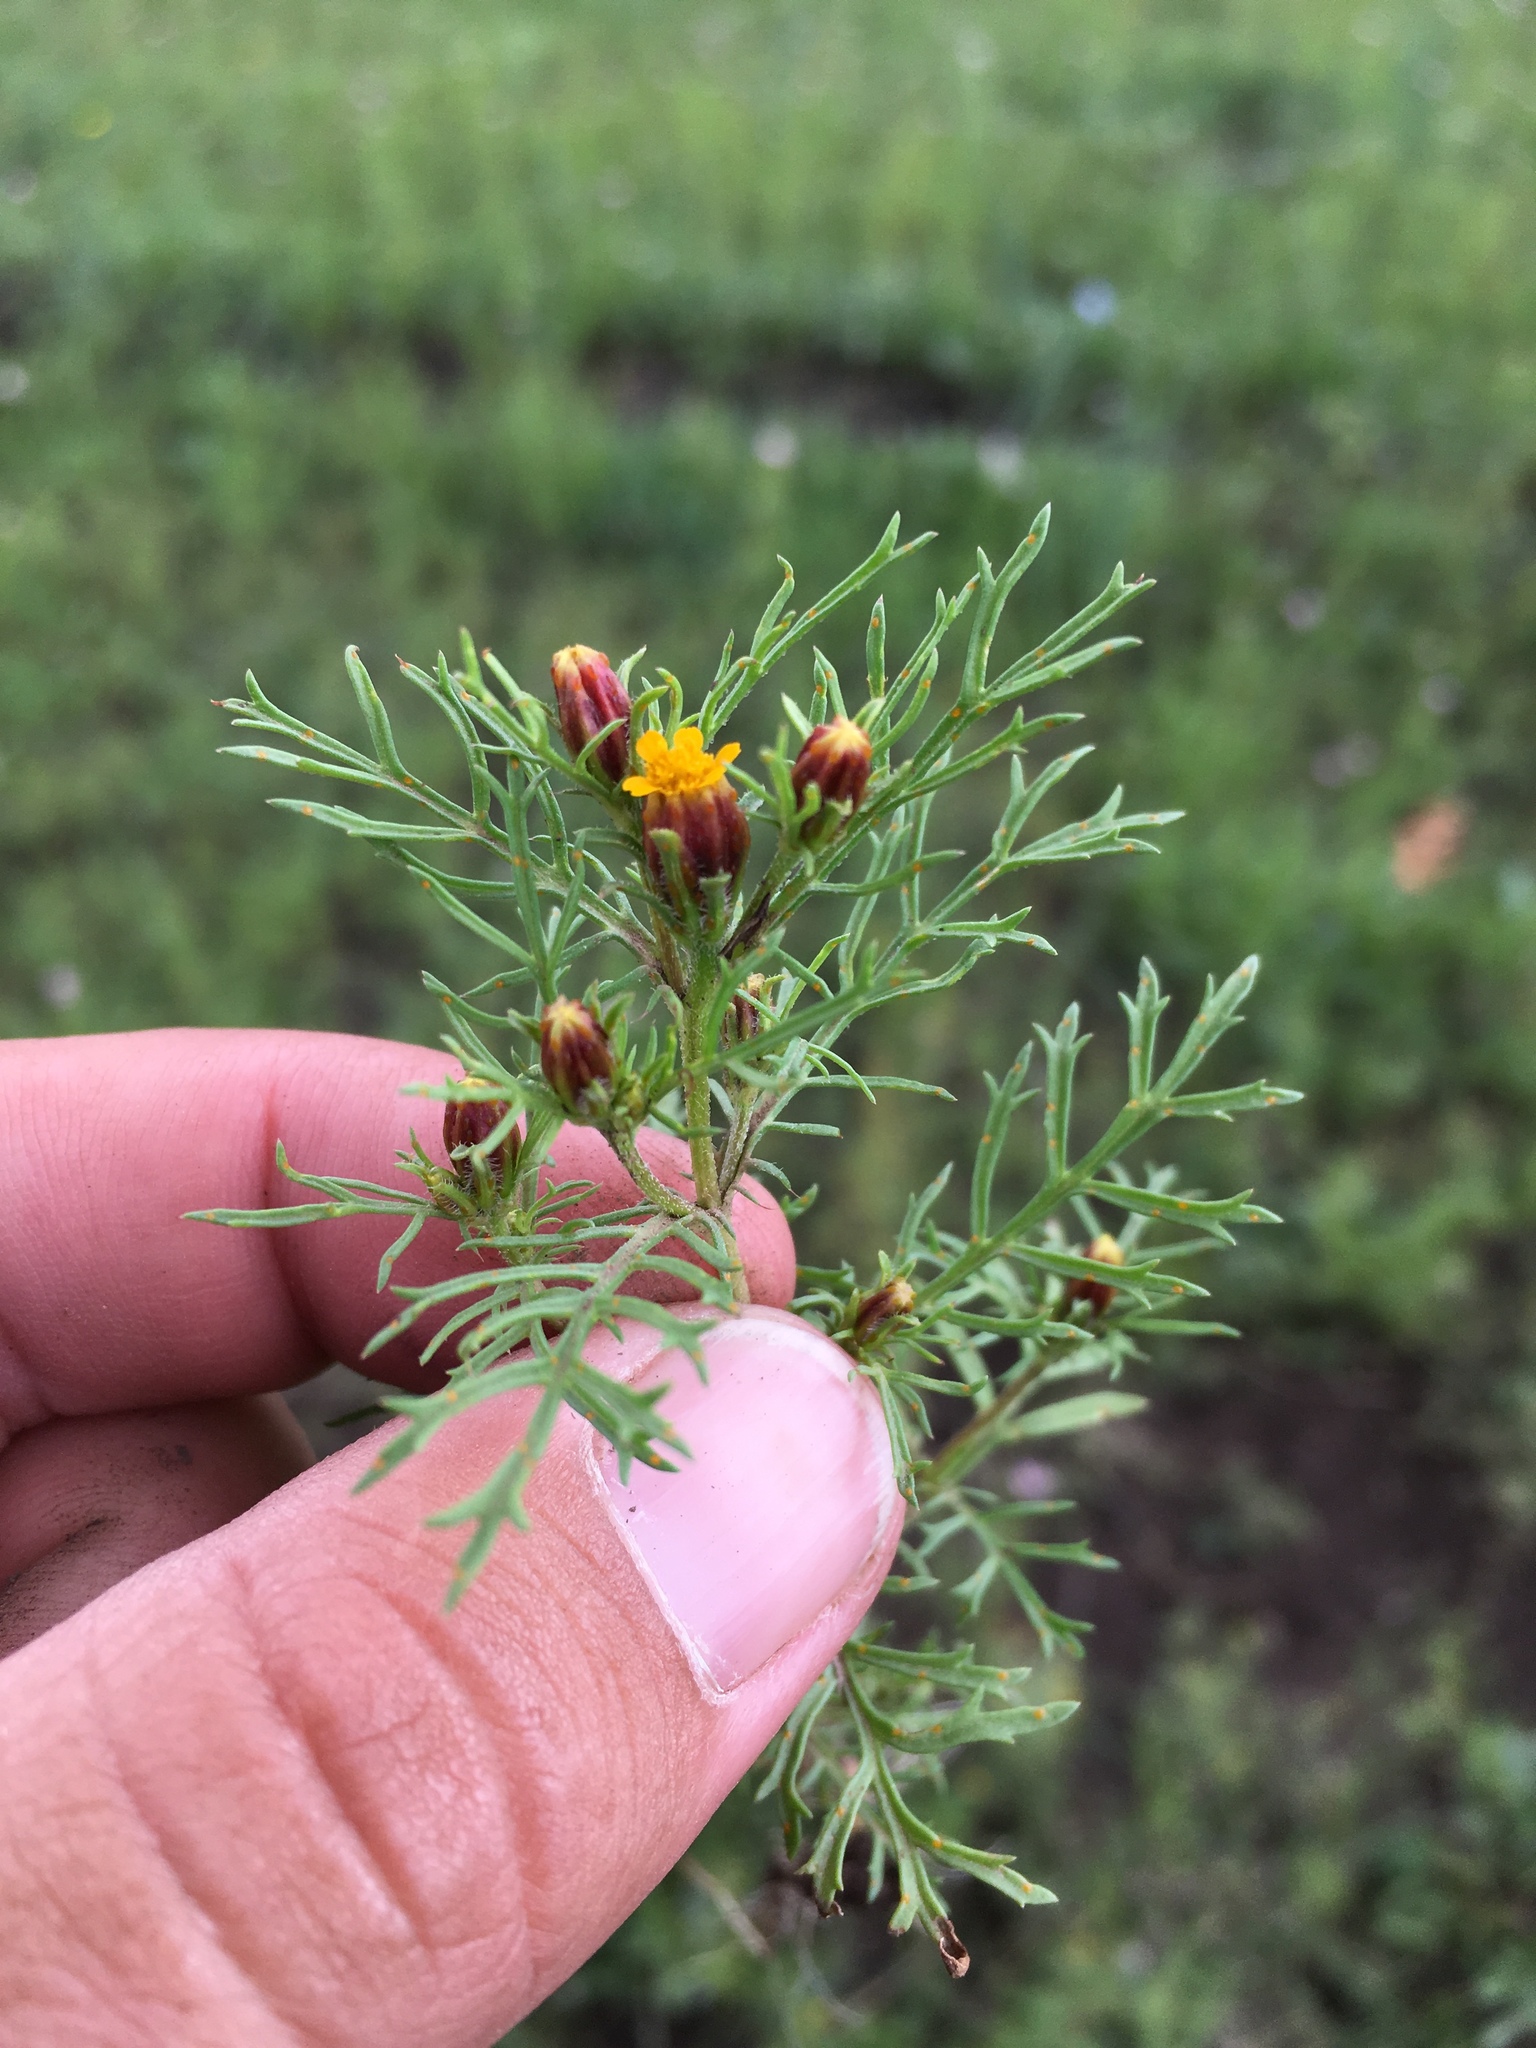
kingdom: Plantae
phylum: Tracheophyta
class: Magnoliopsida
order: Asterales
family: Asteraceae
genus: Dyssodia
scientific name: Dyssodia papposa
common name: Dogweed
